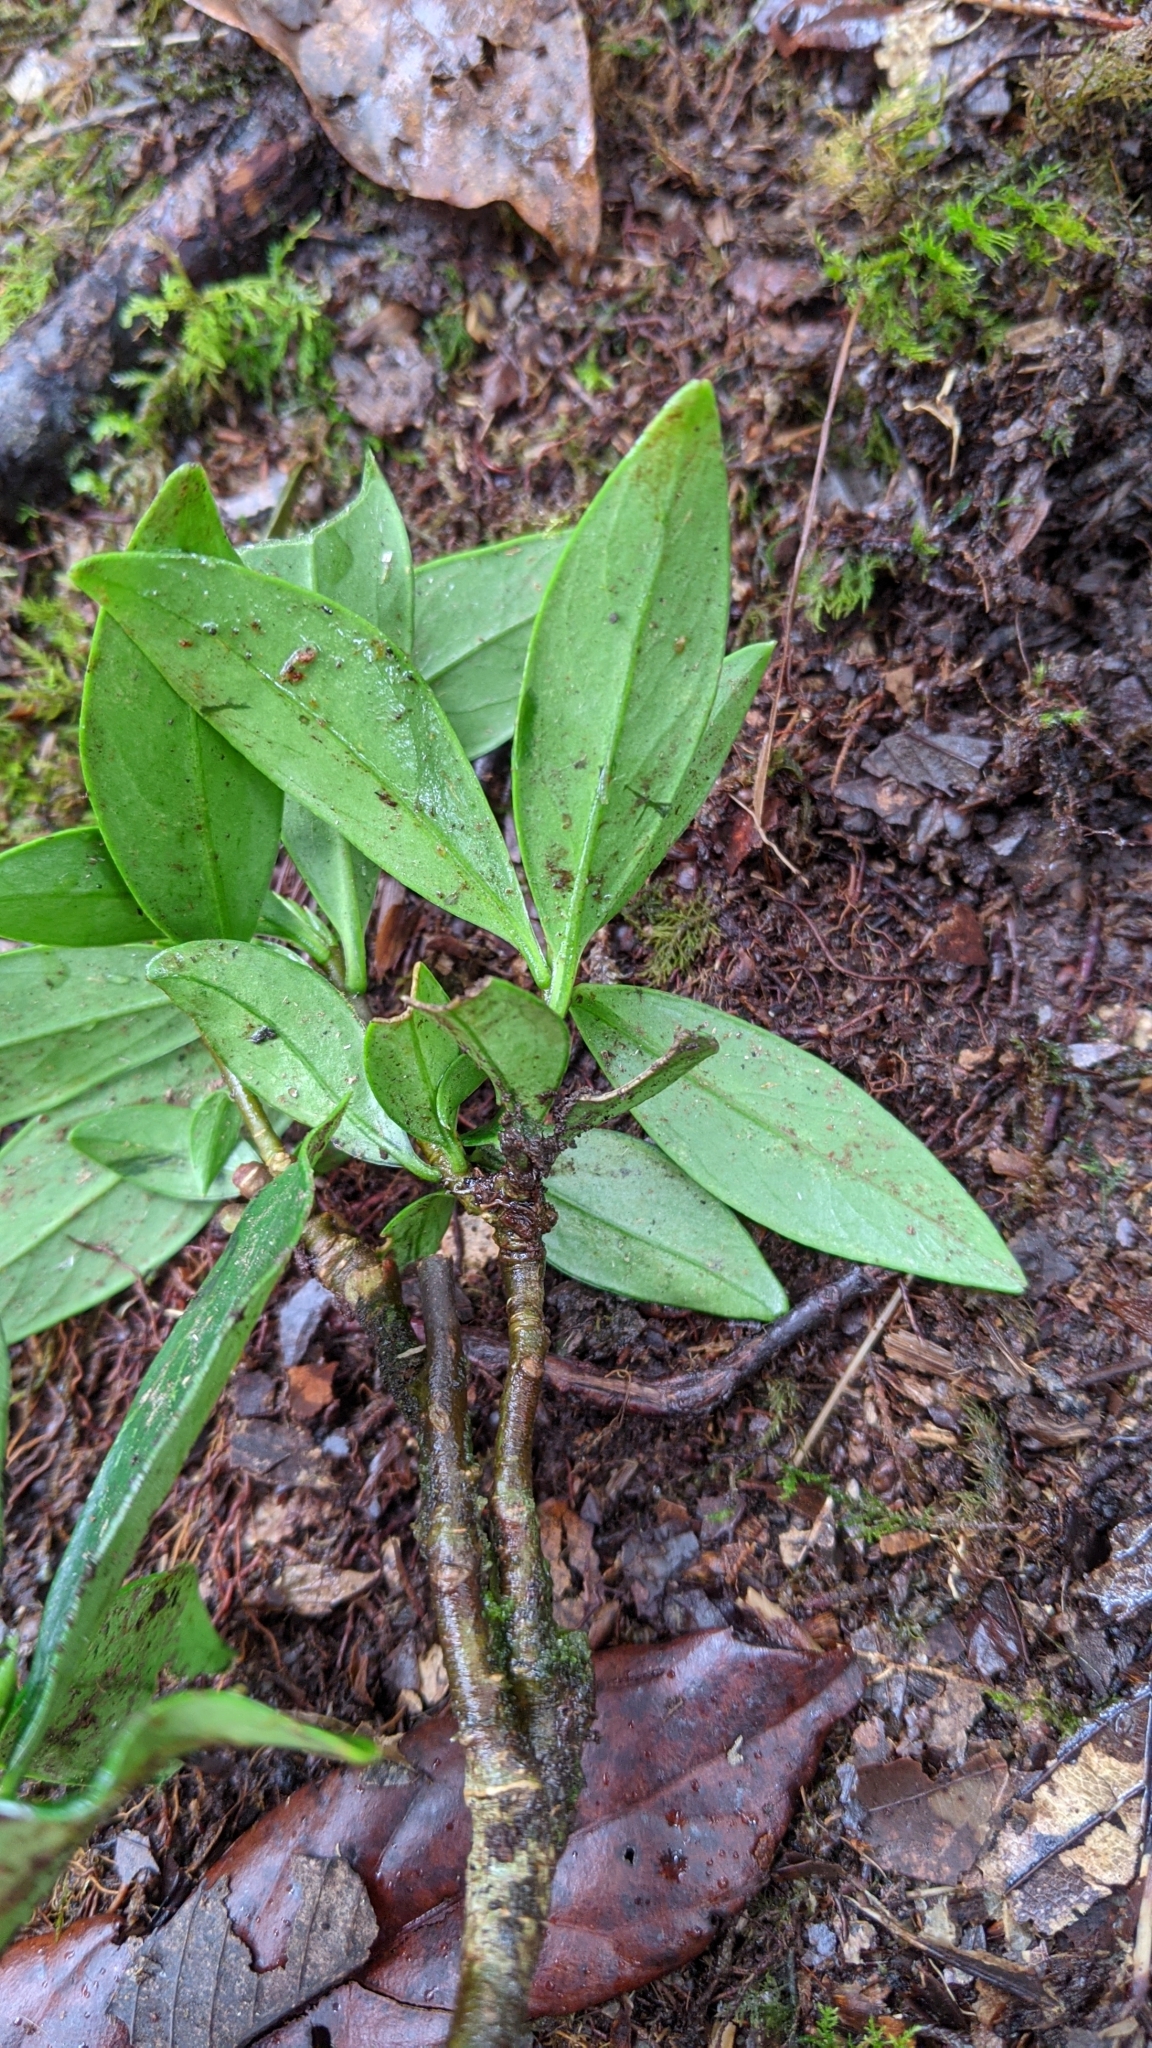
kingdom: Plantae
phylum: Tracheophyta
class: Magnoliopsida
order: Malvales
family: Thymelaeaceae
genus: Daphne
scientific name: Daphne arisanensis
